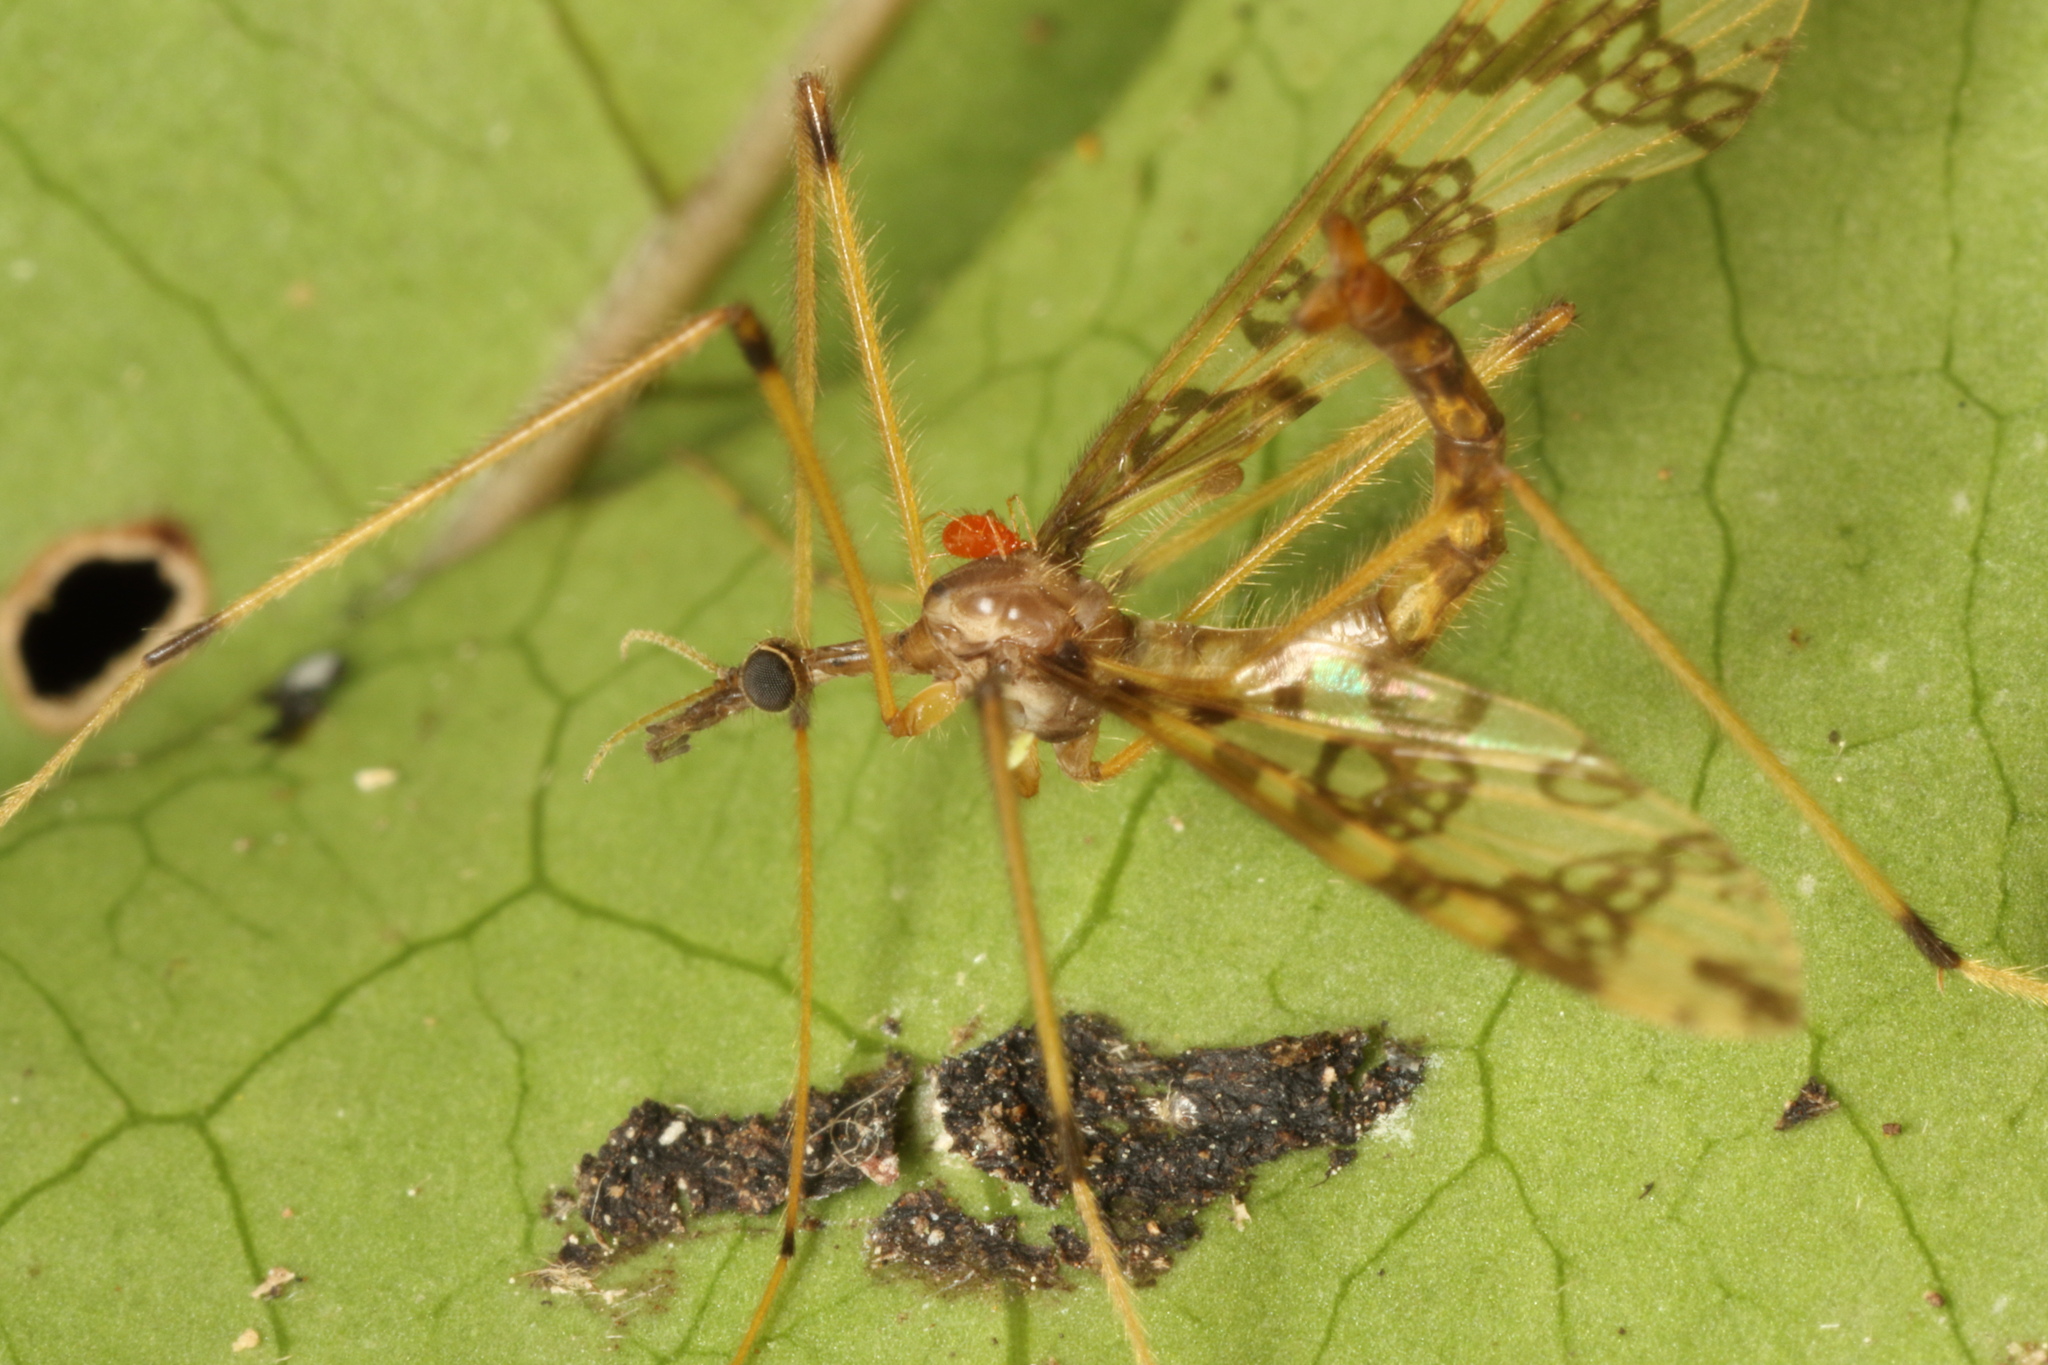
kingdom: Animalia
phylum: Arthropoda
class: Insecta
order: Diptera
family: Tanyderidae
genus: Tanyderus
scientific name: Tanyderus annuliferus
